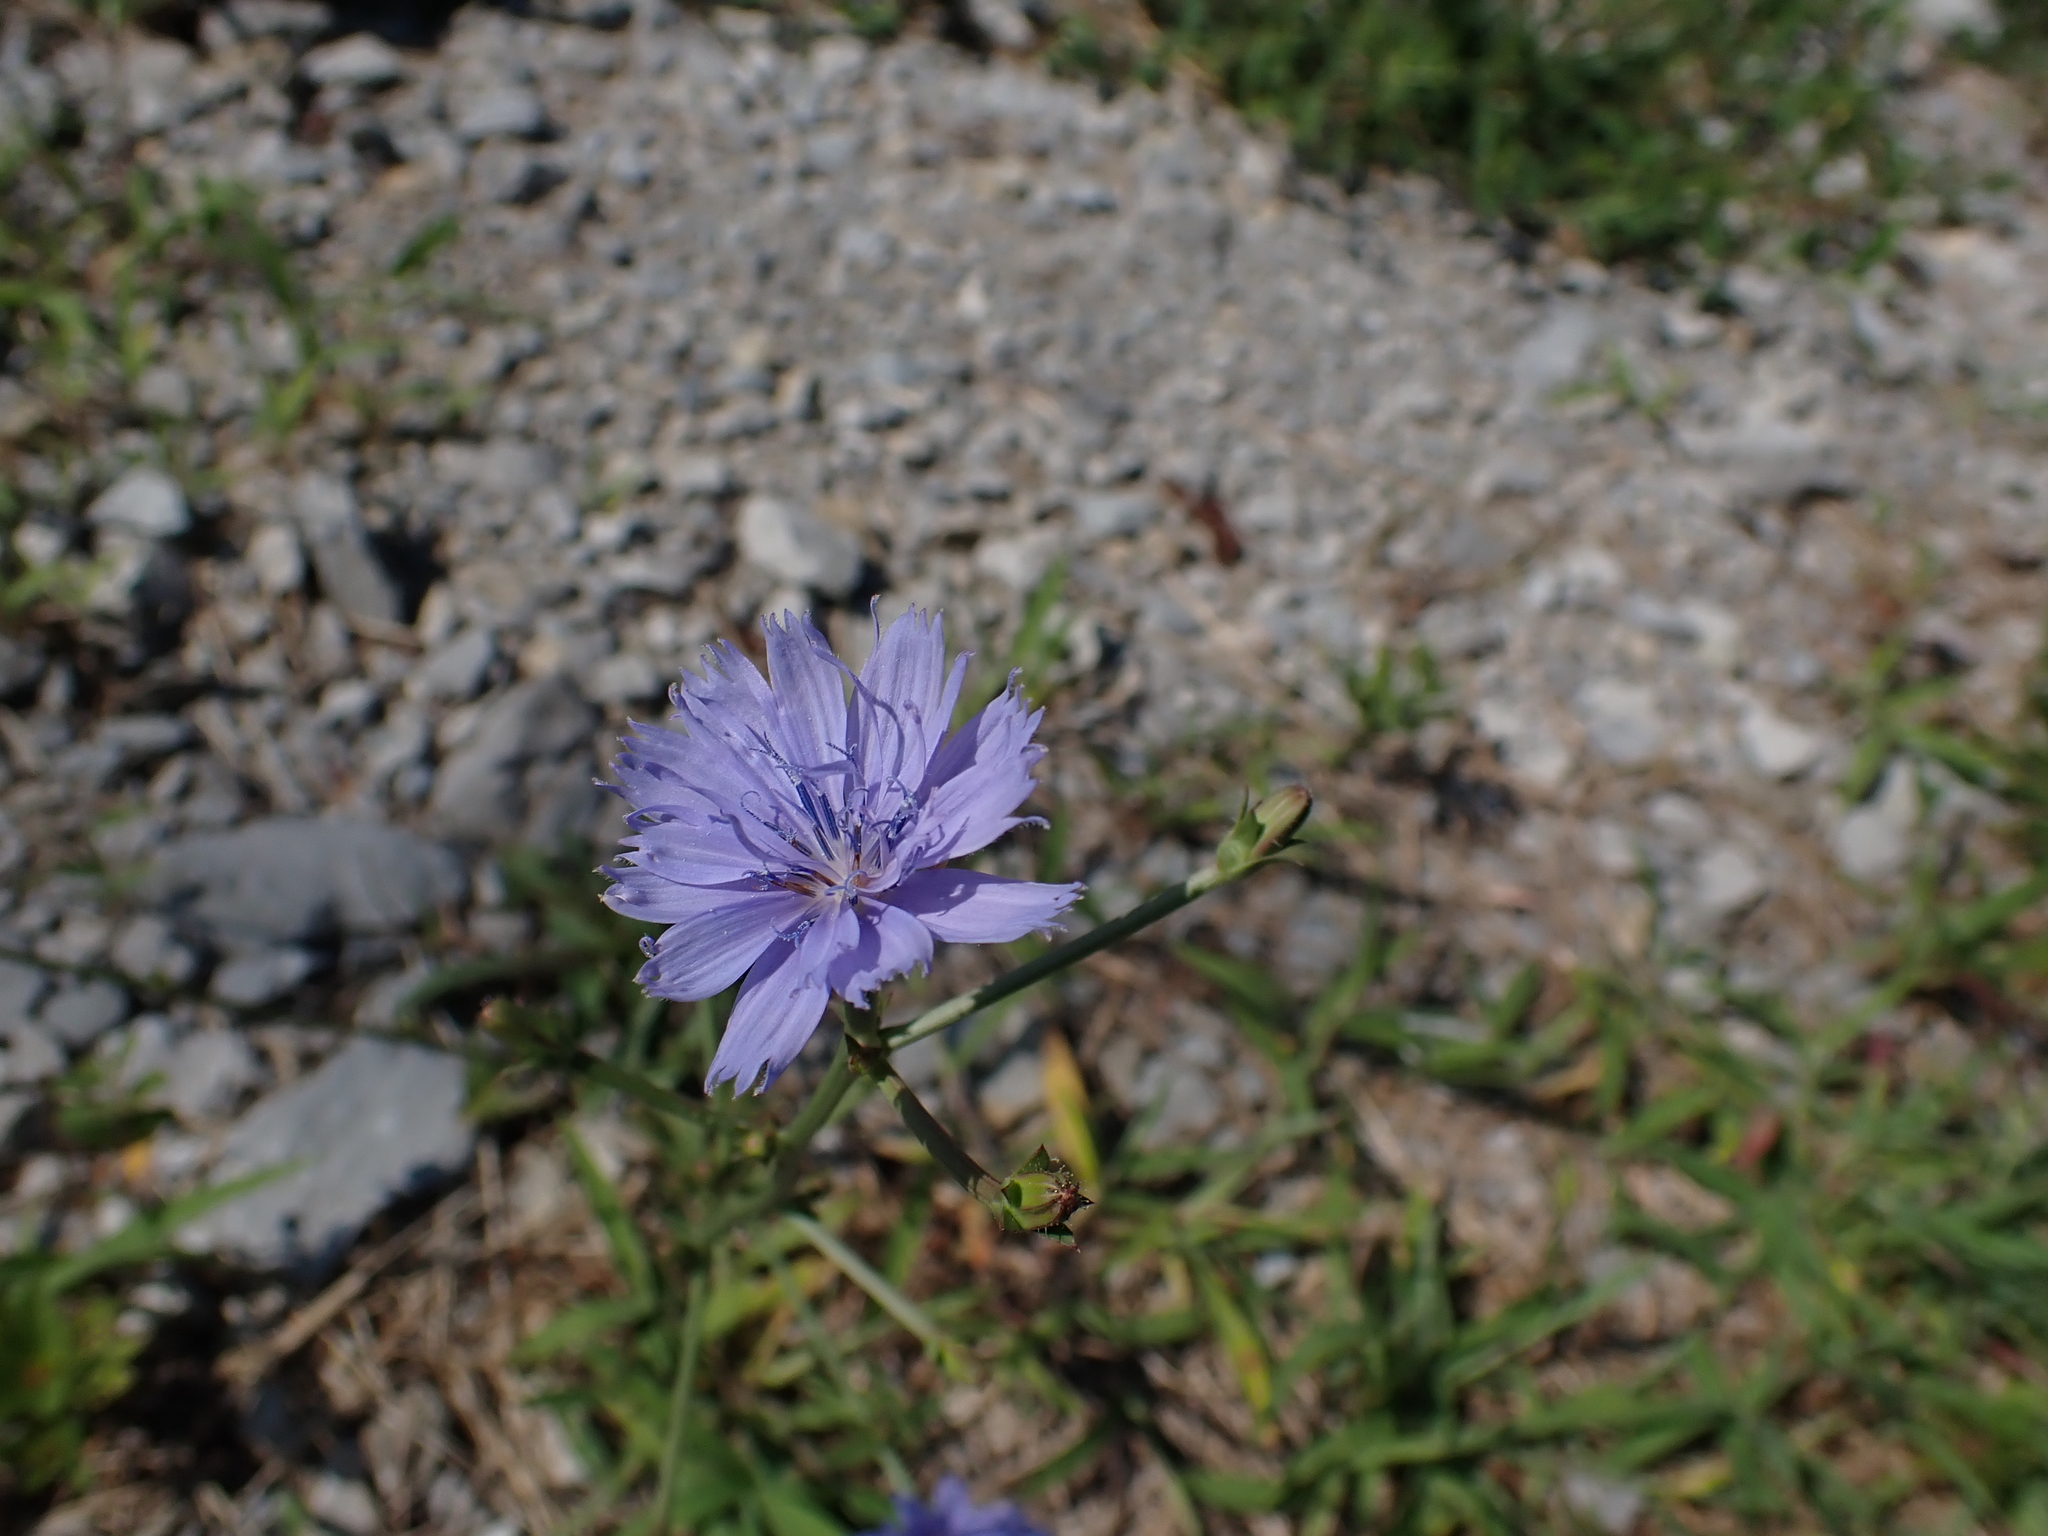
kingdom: Plantae
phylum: Tracheophyta
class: Magnoliopsida
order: Asterales
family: Asteraceae
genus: Cichorium
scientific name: Cichorium intybus
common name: Chicory
